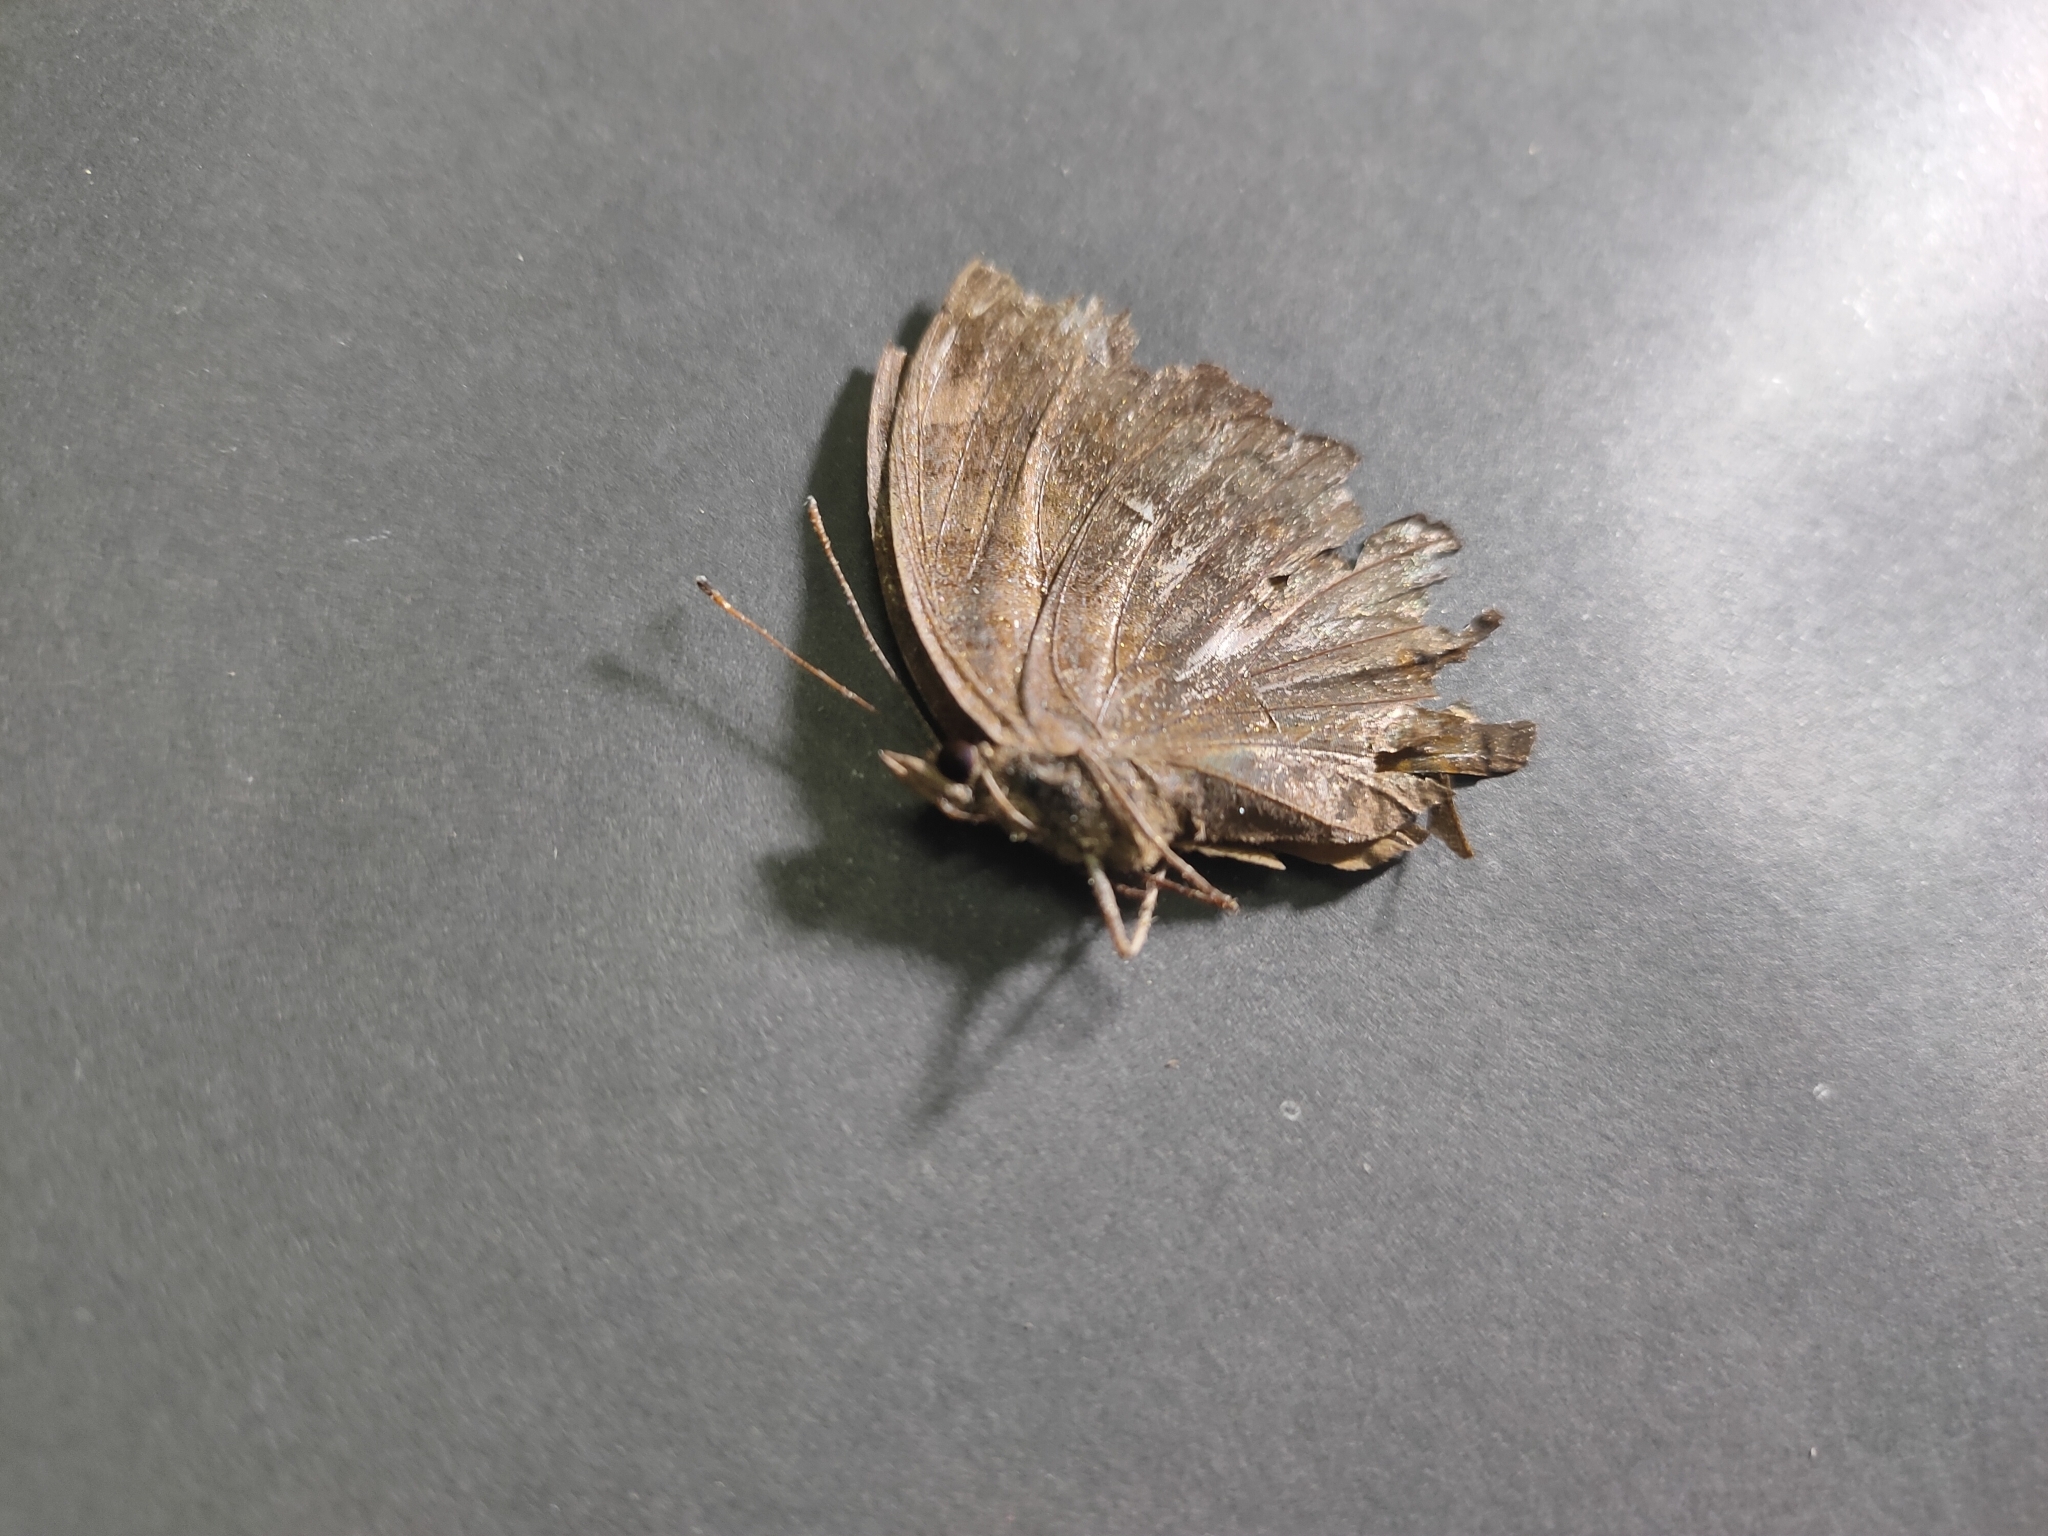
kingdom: Animalia
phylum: Arthropoda
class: Insecta
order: Lepidoptera
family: Nymphalidae
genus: Junonia
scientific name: Junonia hedonia
